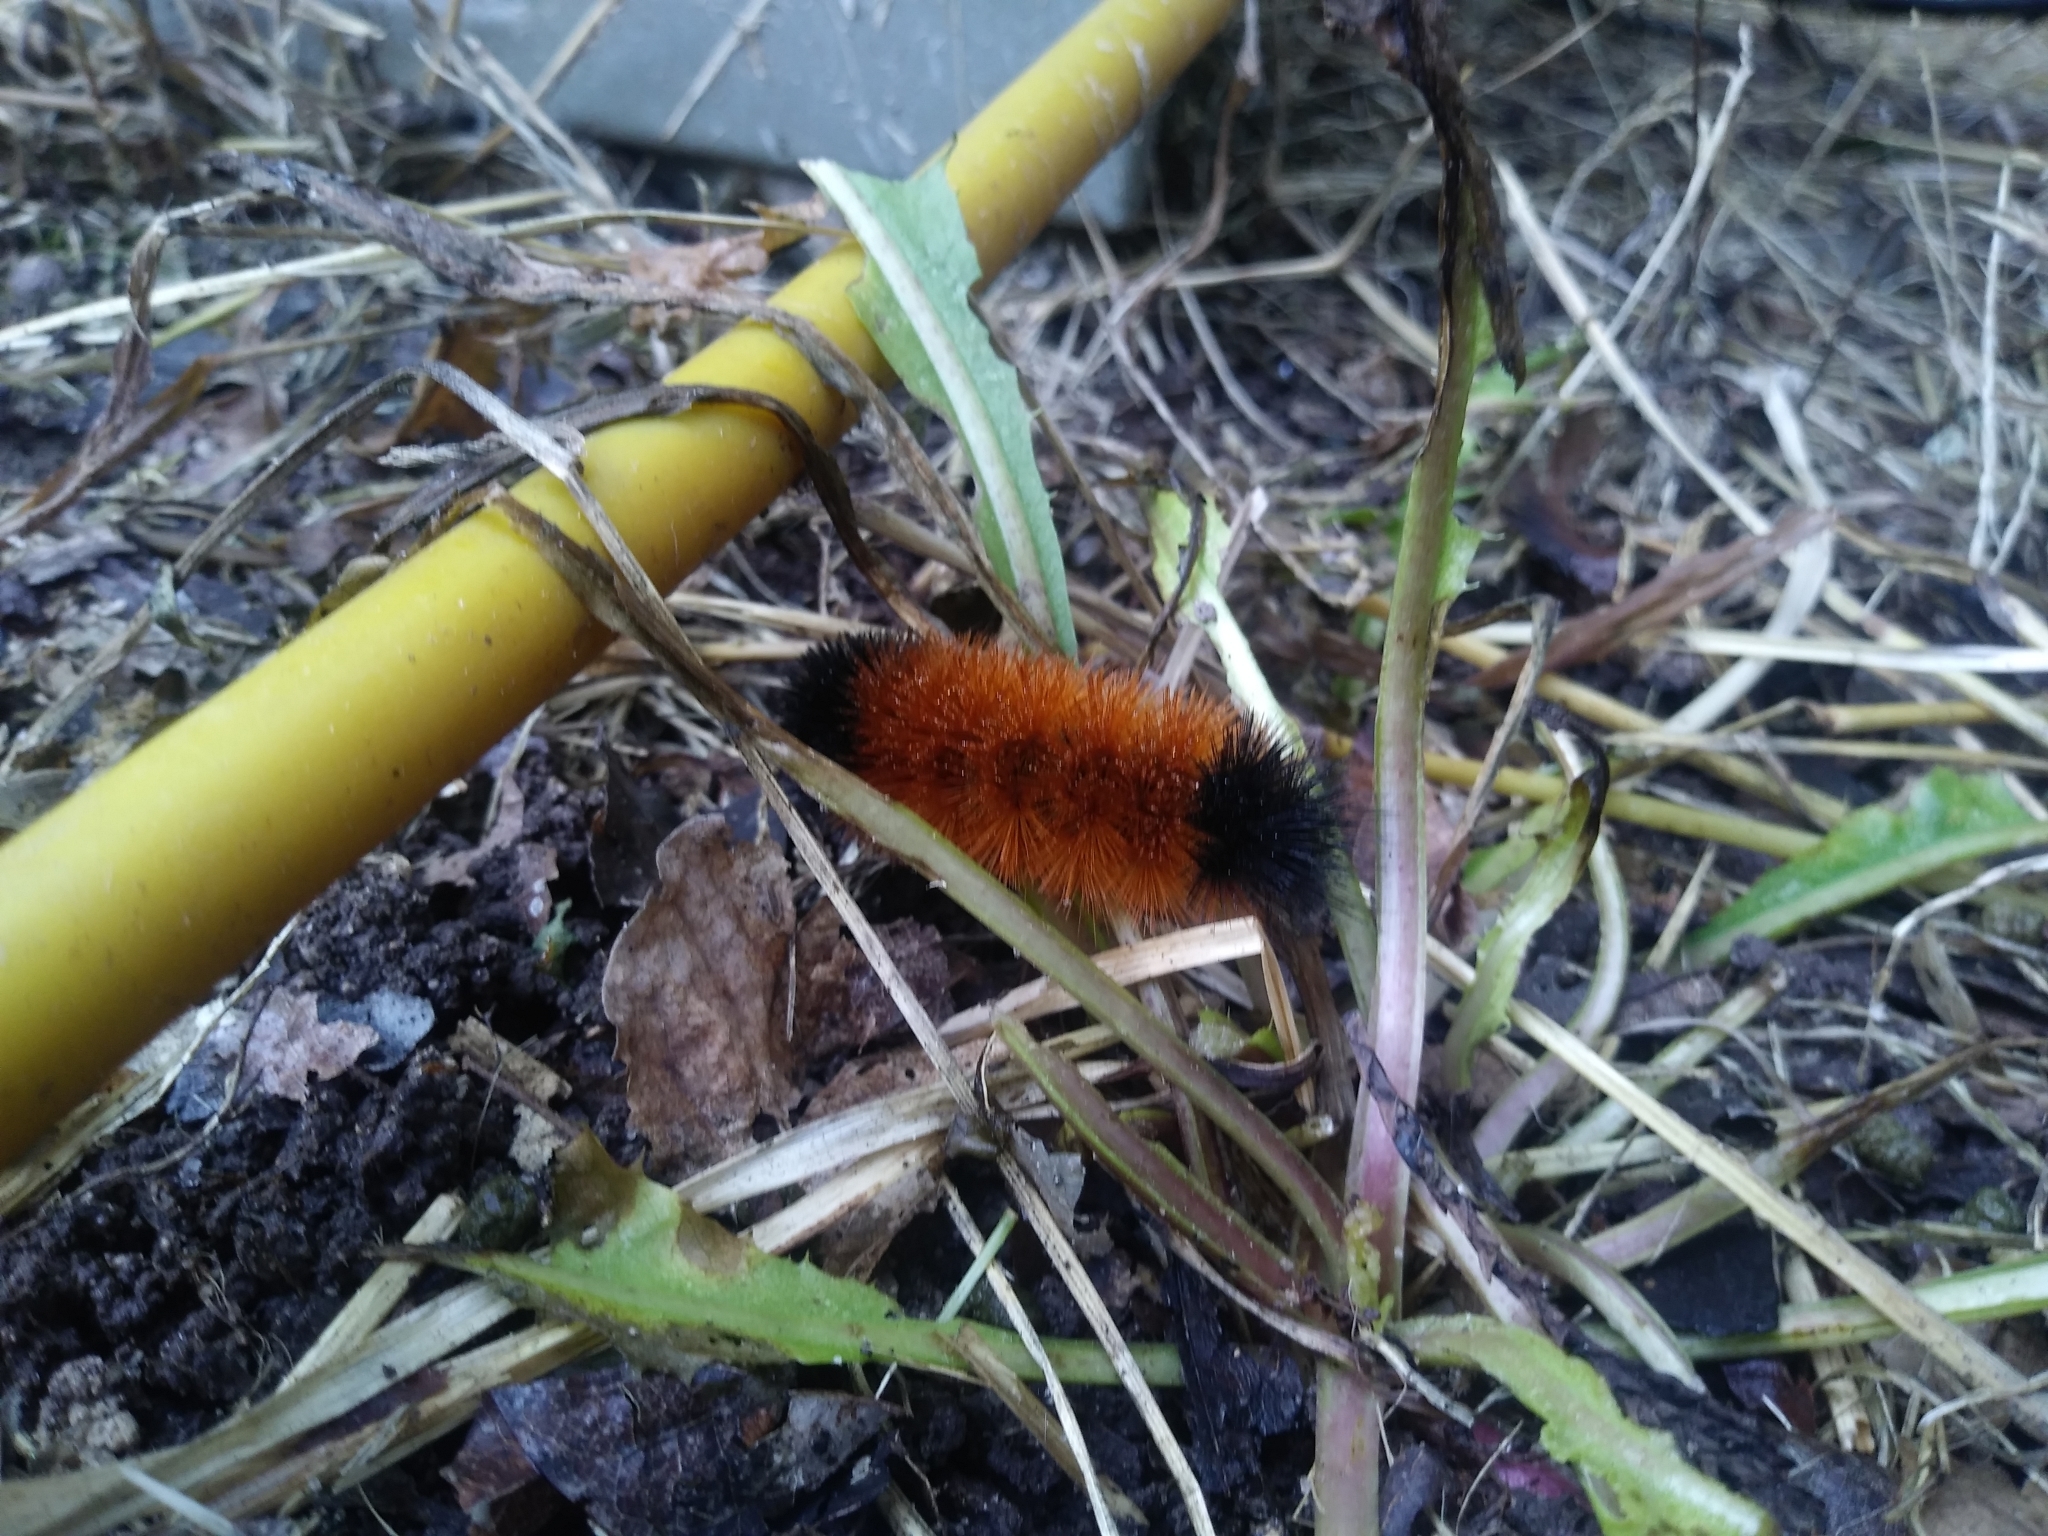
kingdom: Animalia
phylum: Arthropoda
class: Insecta
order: Lepidoptera
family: Erebidae
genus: Pyrrharctia
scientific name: Pyrrharctia isabella
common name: Isabella tiger moth
